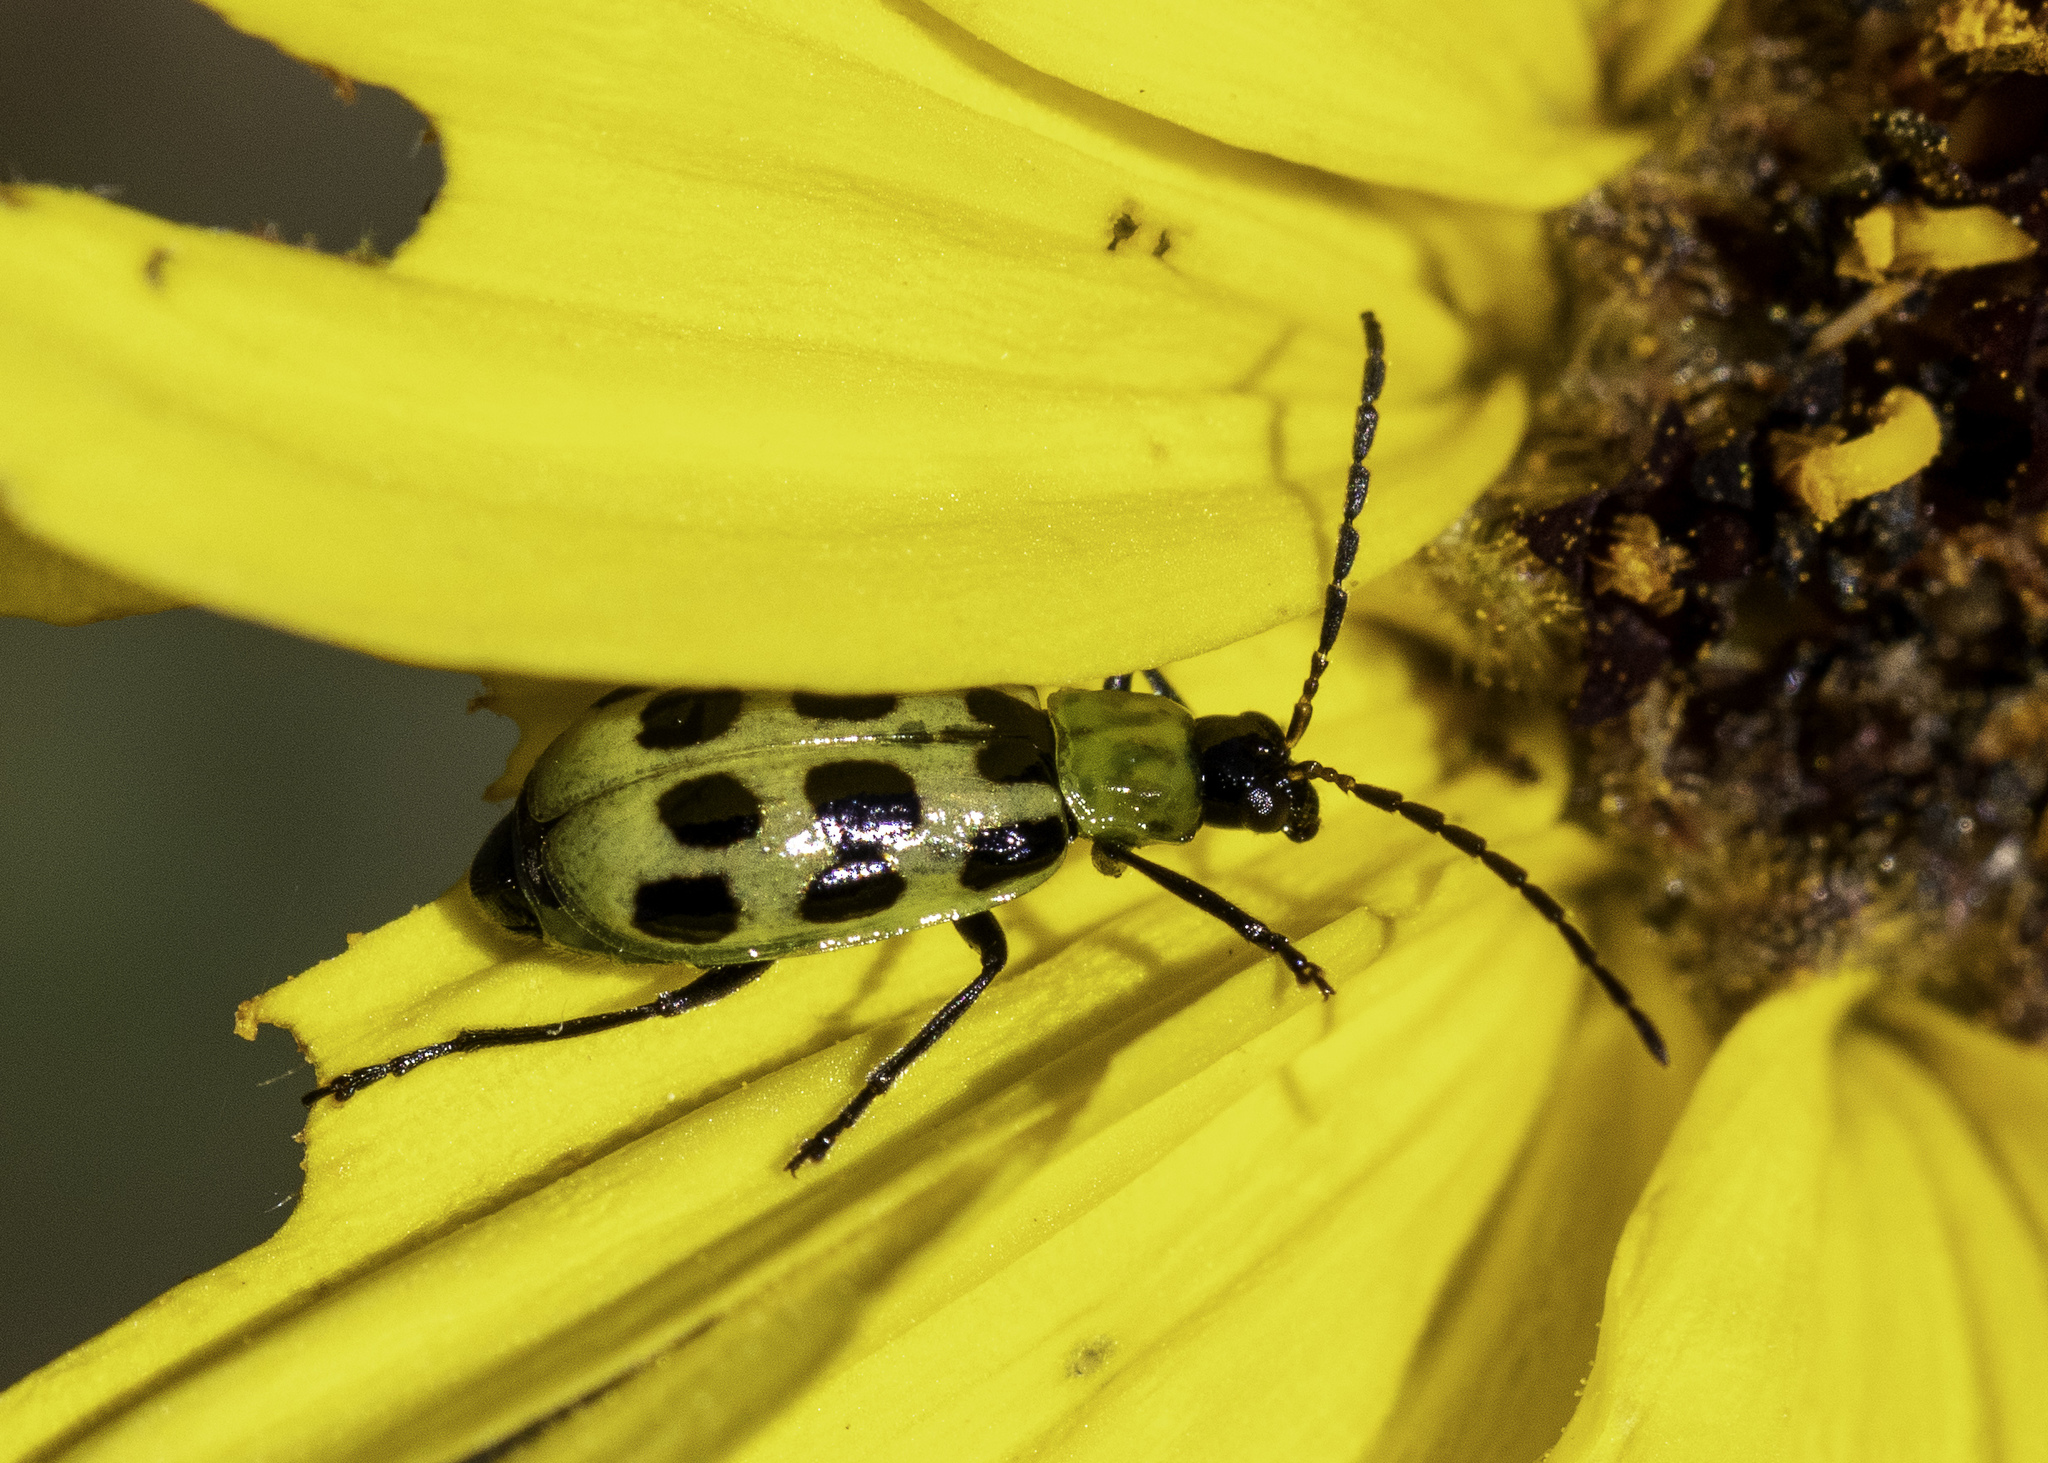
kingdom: Animalia
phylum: Arthropoda
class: Insecta
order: Coleoptera
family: Chrysomelidae
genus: Diabrotica
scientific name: Diabrotica undecimpunctata
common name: Spotted cucumber beetle
